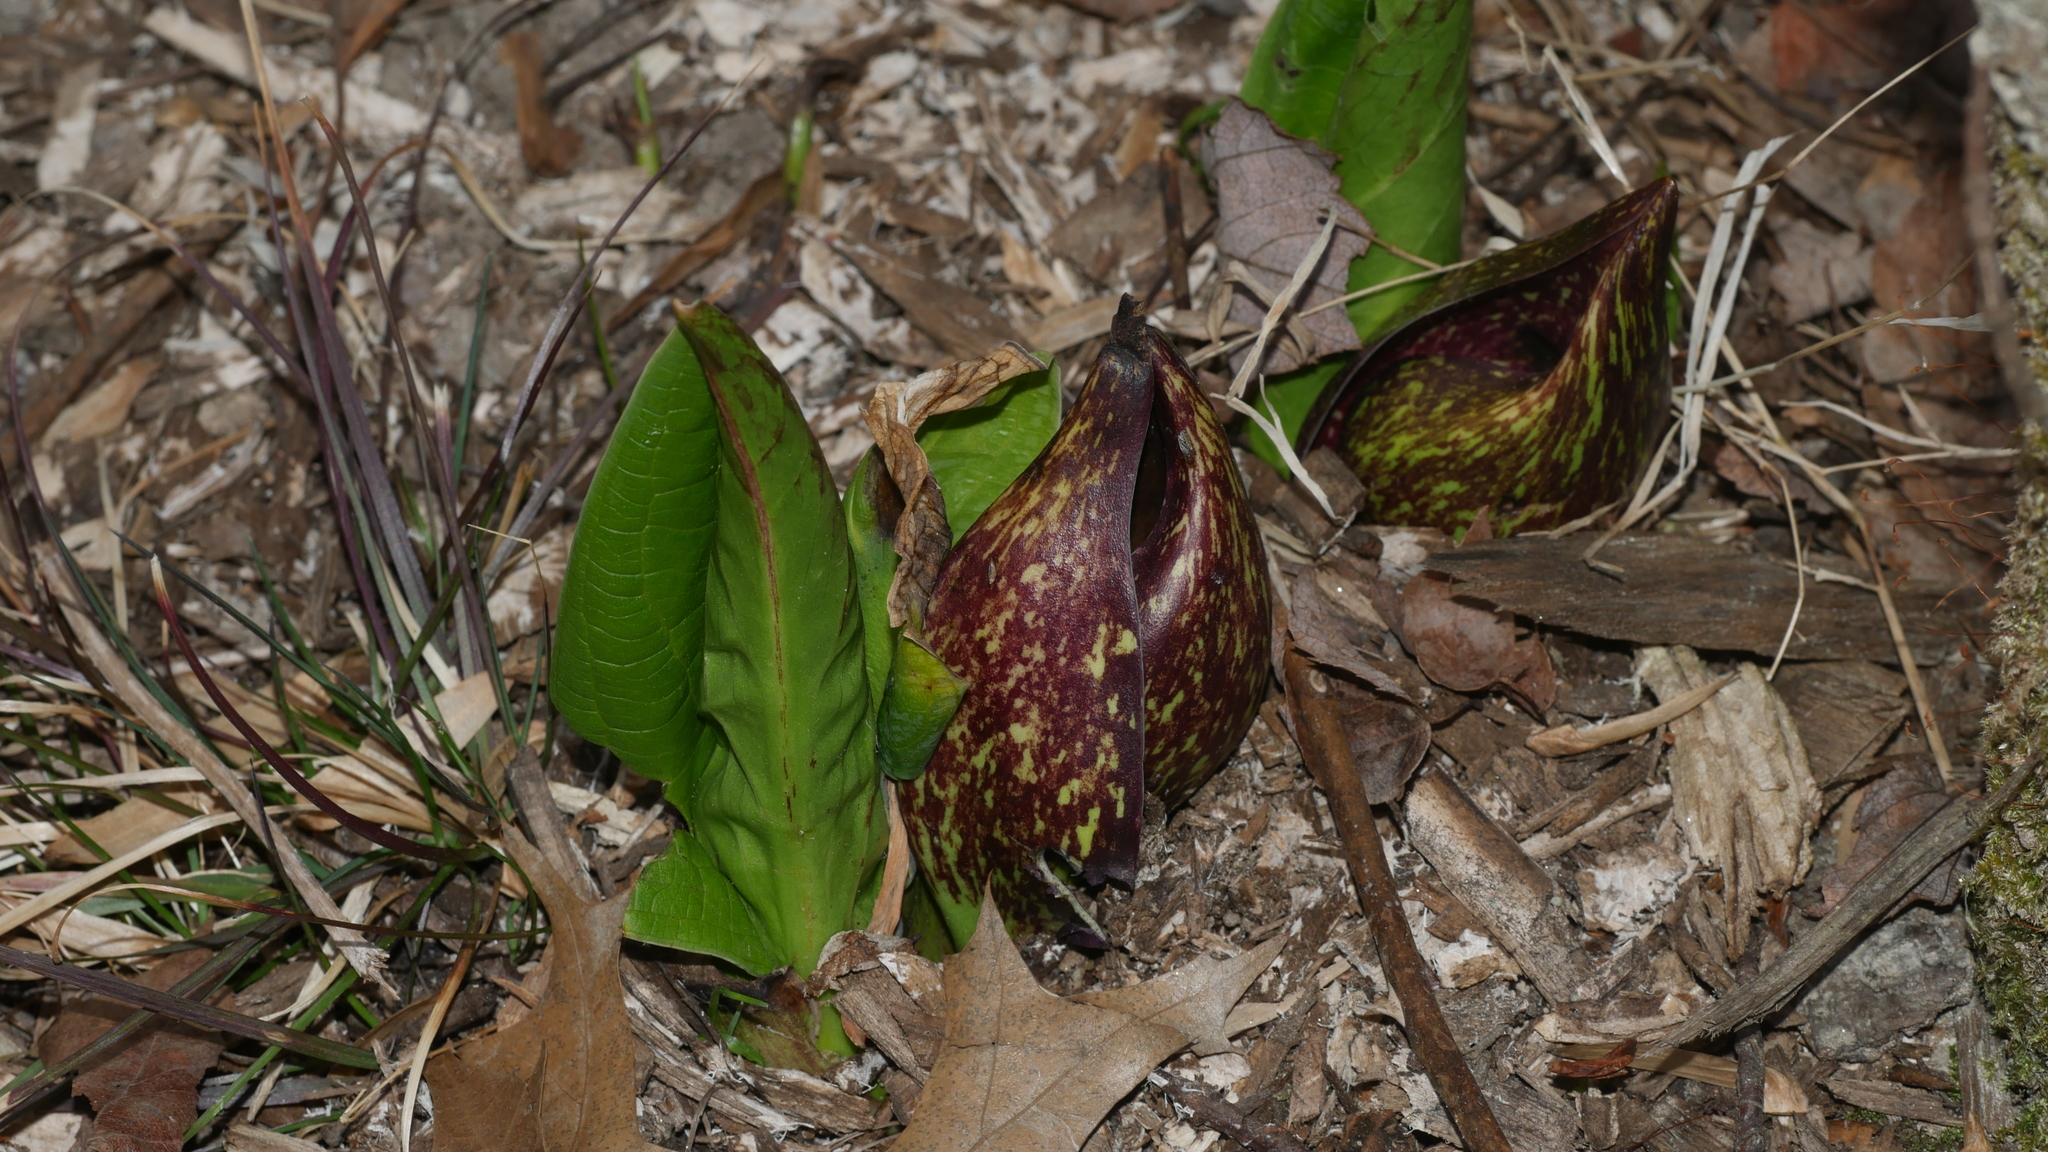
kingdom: Plantae
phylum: Tracheophyta
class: Liliopsida
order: Alismatales
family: Araceae
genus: Symplocarpus
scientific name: Symplocarpus foetidus
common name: Eastern skunk cabbage
